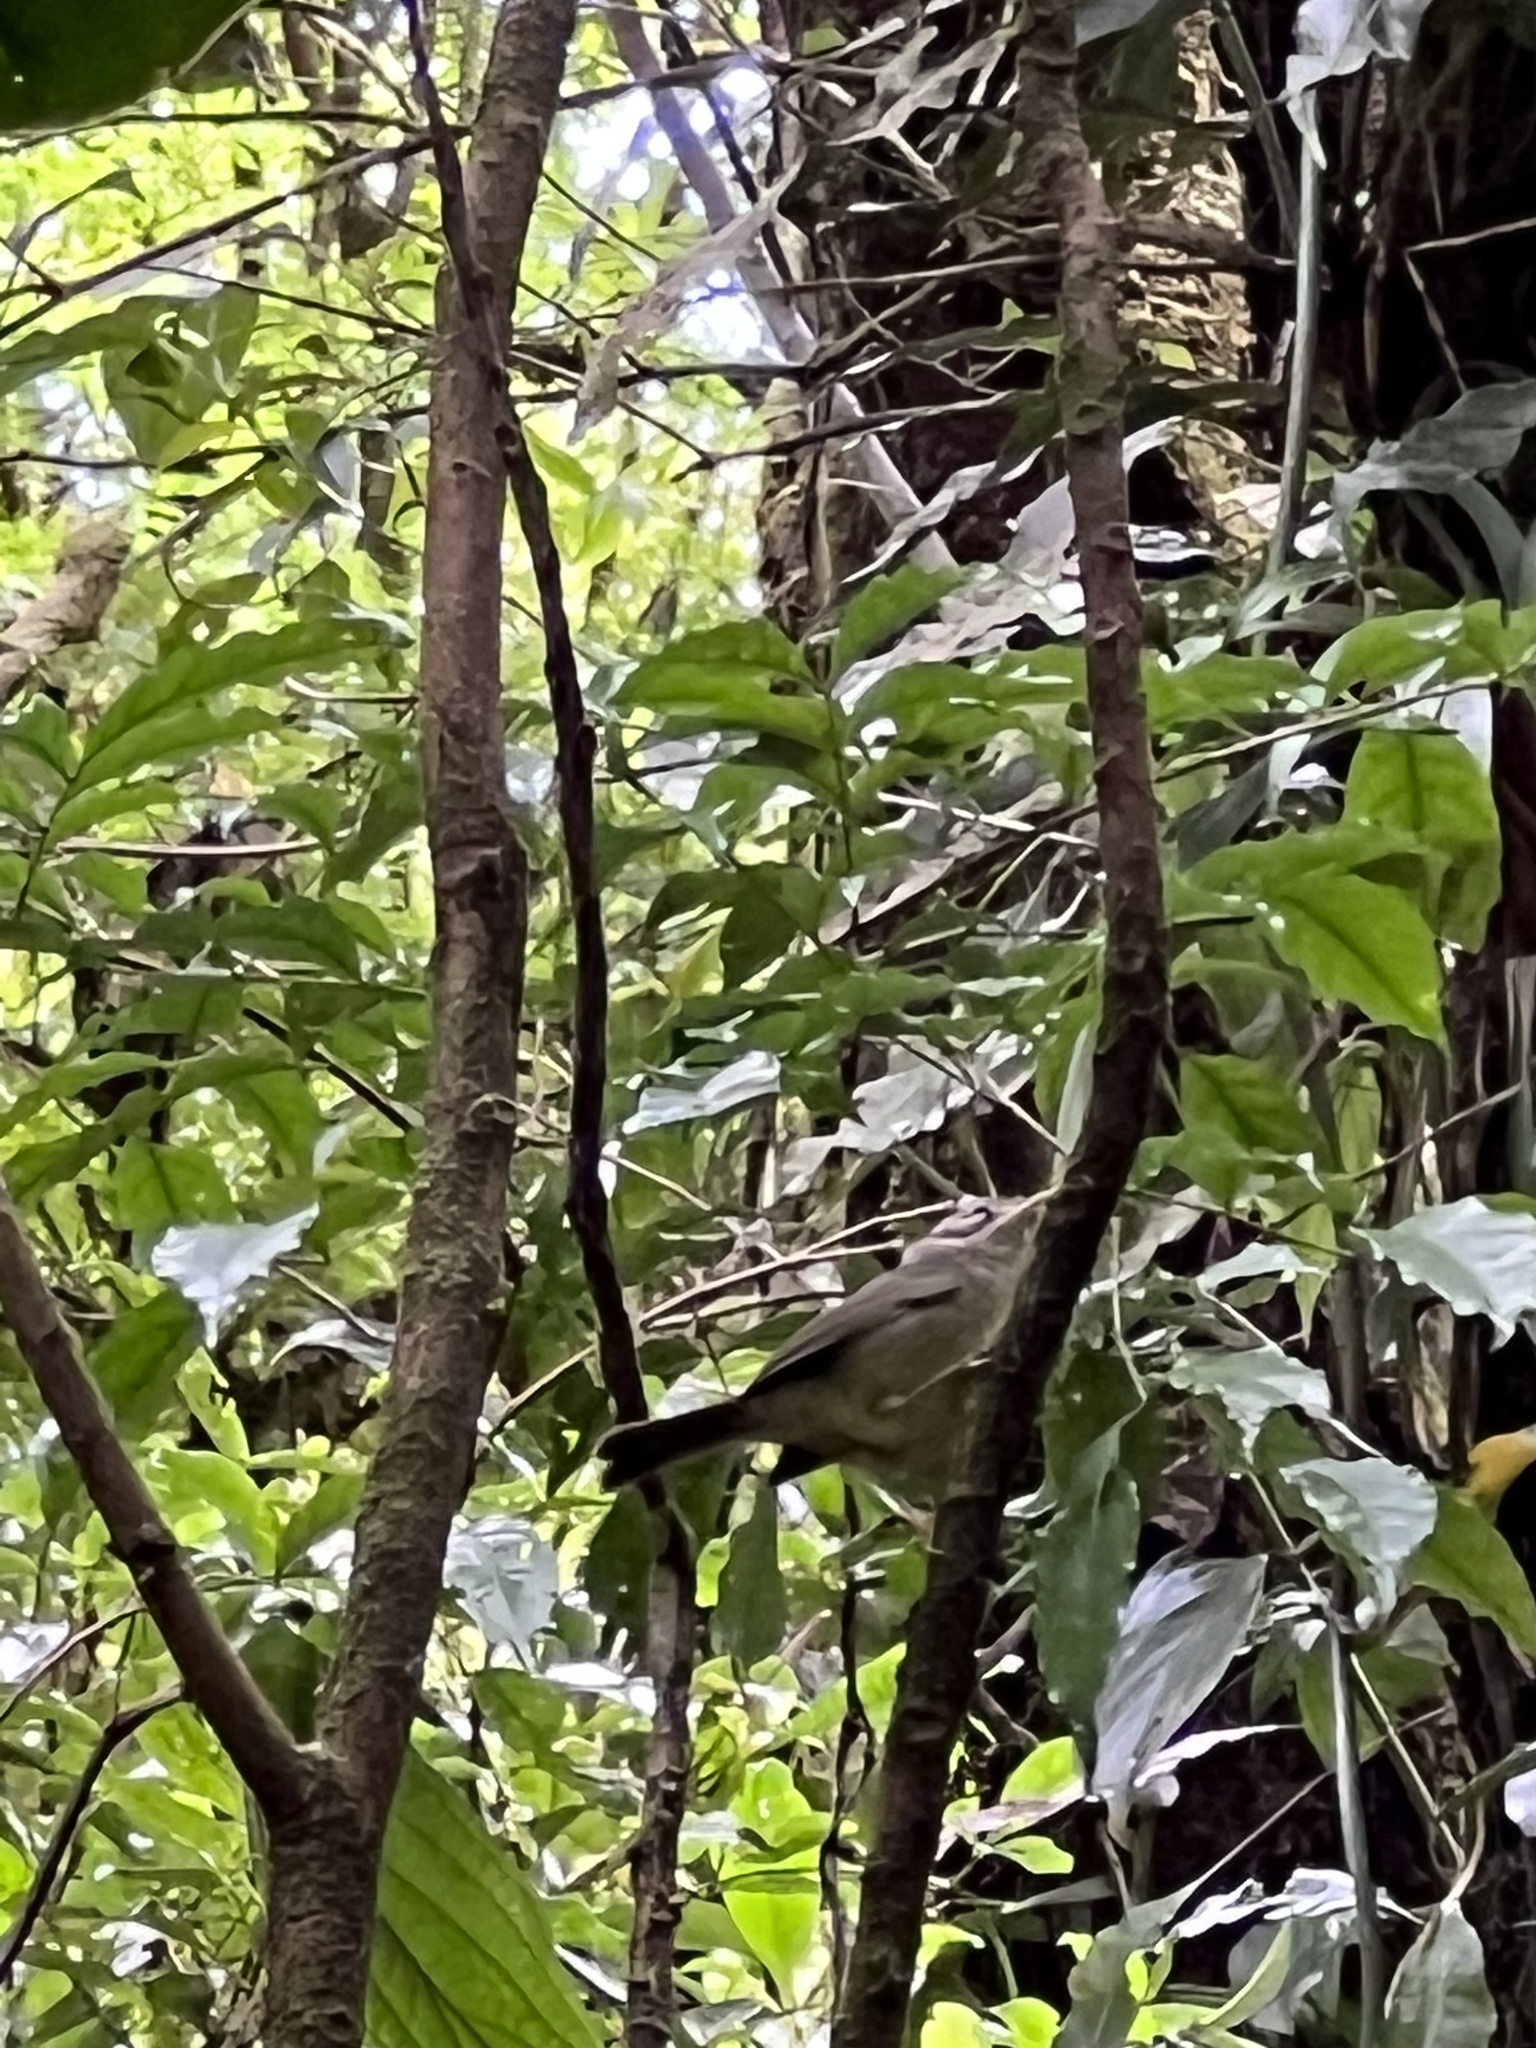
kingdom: Animalia
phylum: Chordata
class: Aves
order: Passeriformes
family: Parulidae
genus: Basileuterus
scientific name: Basileuterus melanotis
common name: Black-eared warbler
